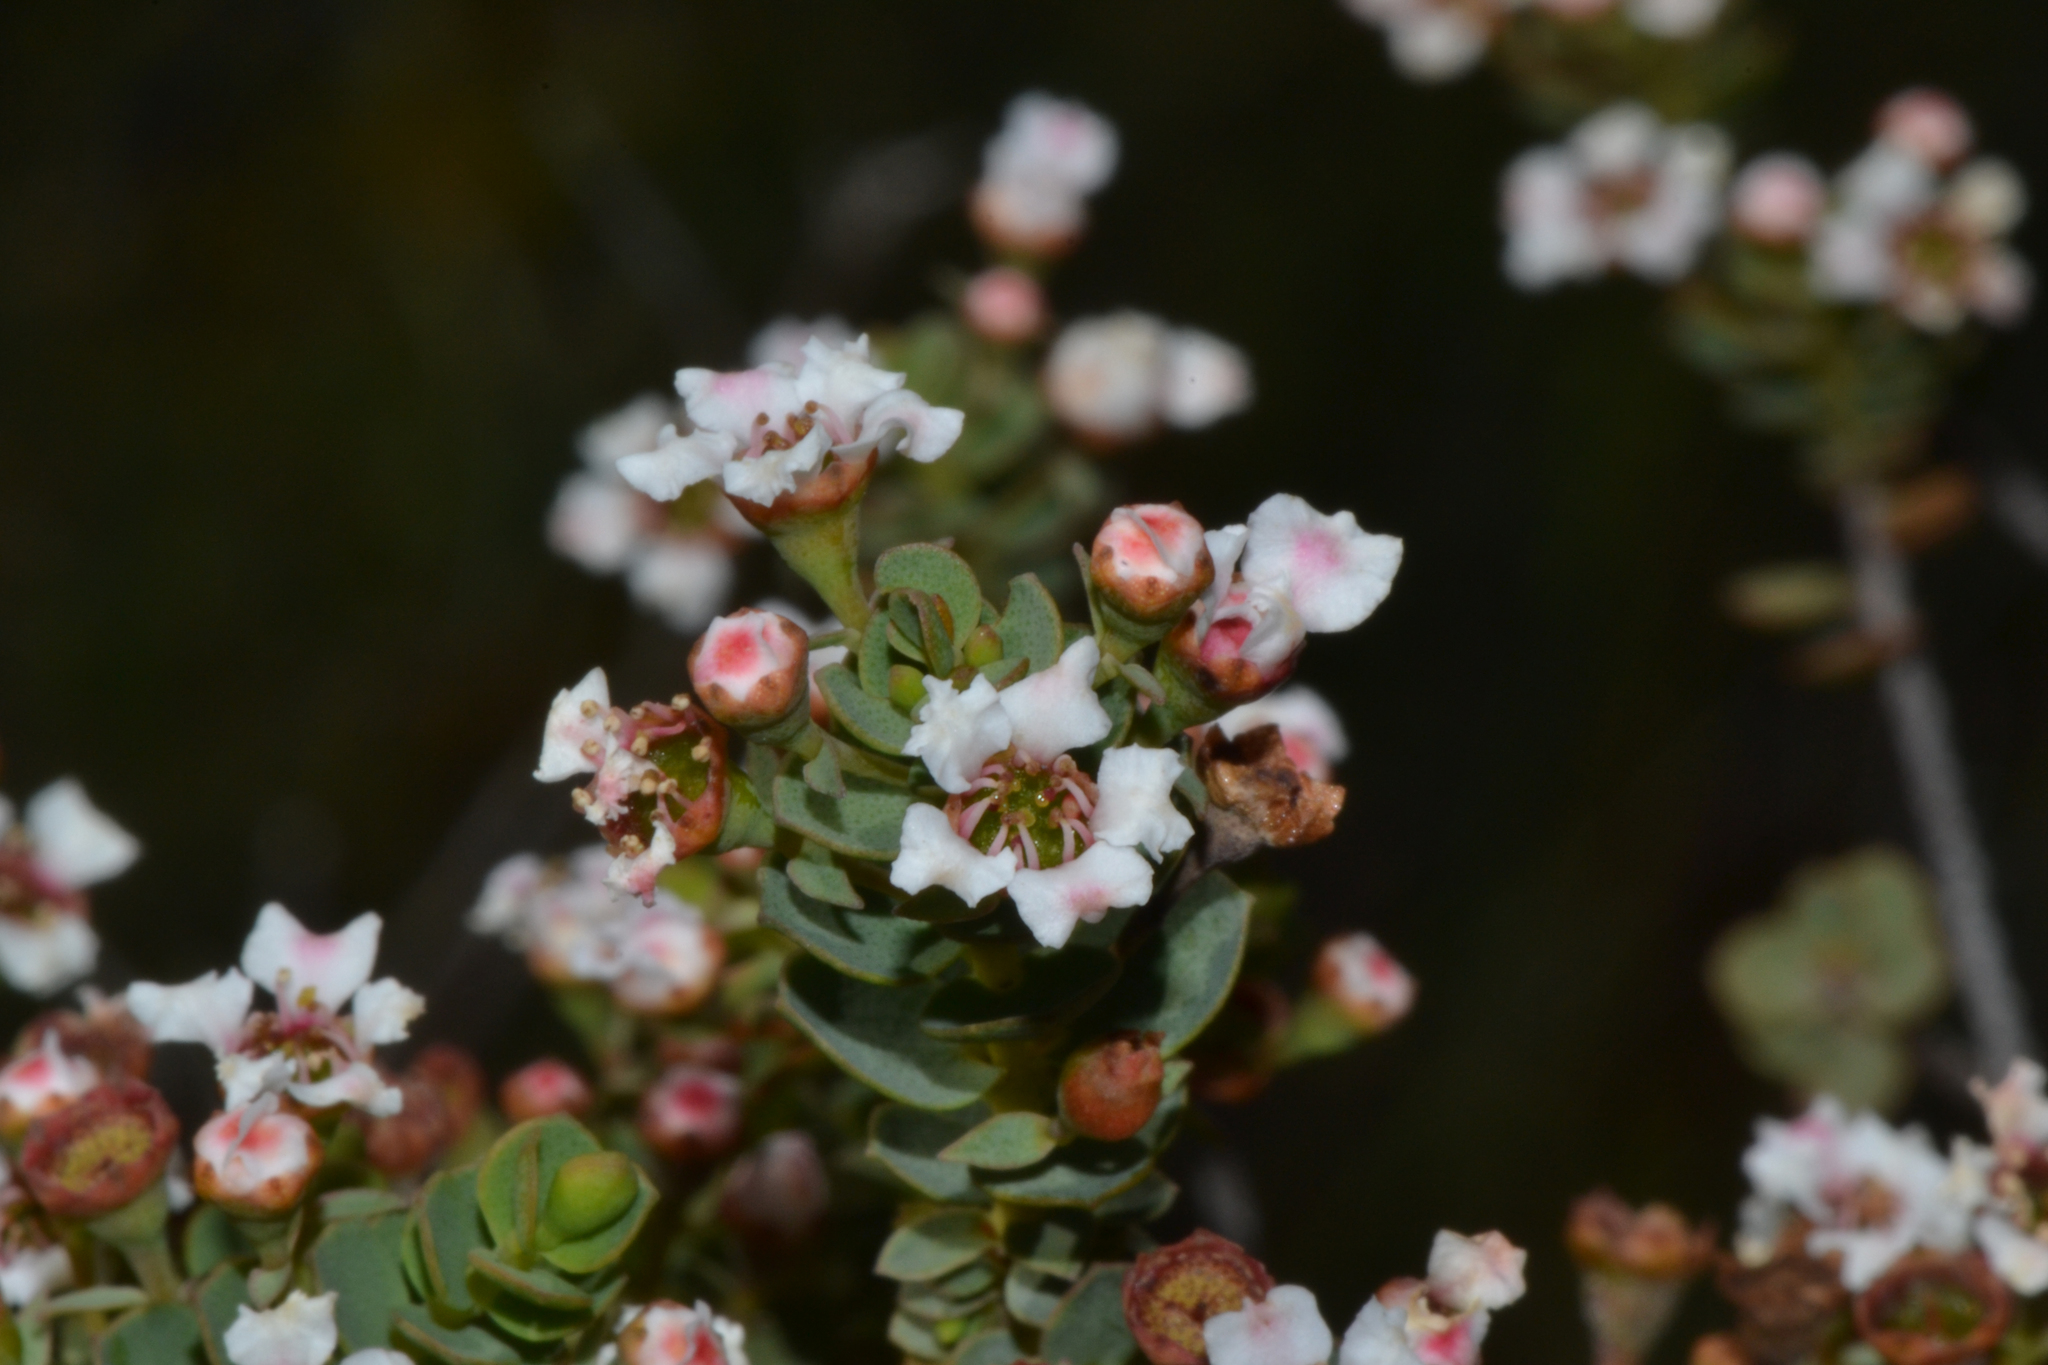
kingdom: Plantae
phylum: Tracheophyta
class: Magnoliopsida
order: Myrtales
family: Myrtaceae
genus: Ericomyrtus
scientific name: Ericomyrtus serpyllifolia
